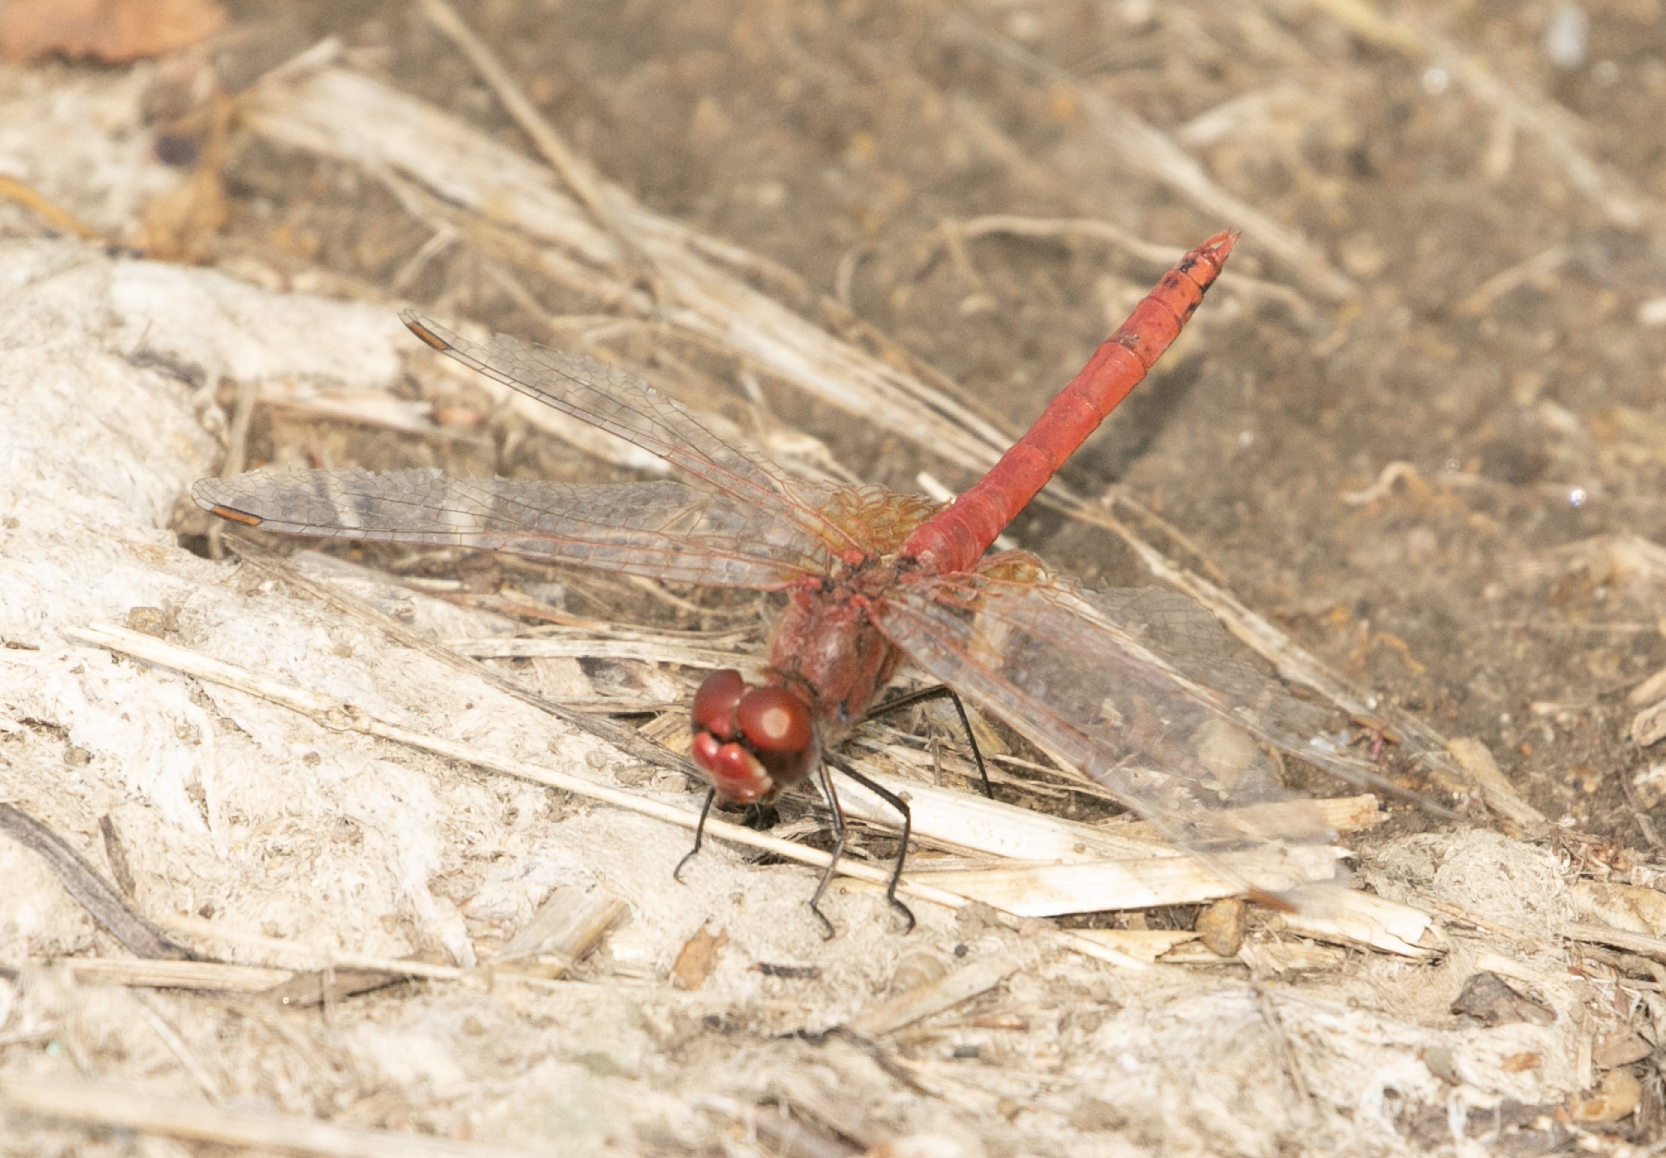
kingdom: Animalia
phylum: Arthropoda
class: Insecta
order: Odonata
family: Libellulidae
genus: Sympetrum
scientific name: Sympetrum fonscolombii
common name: Red-veined darter
